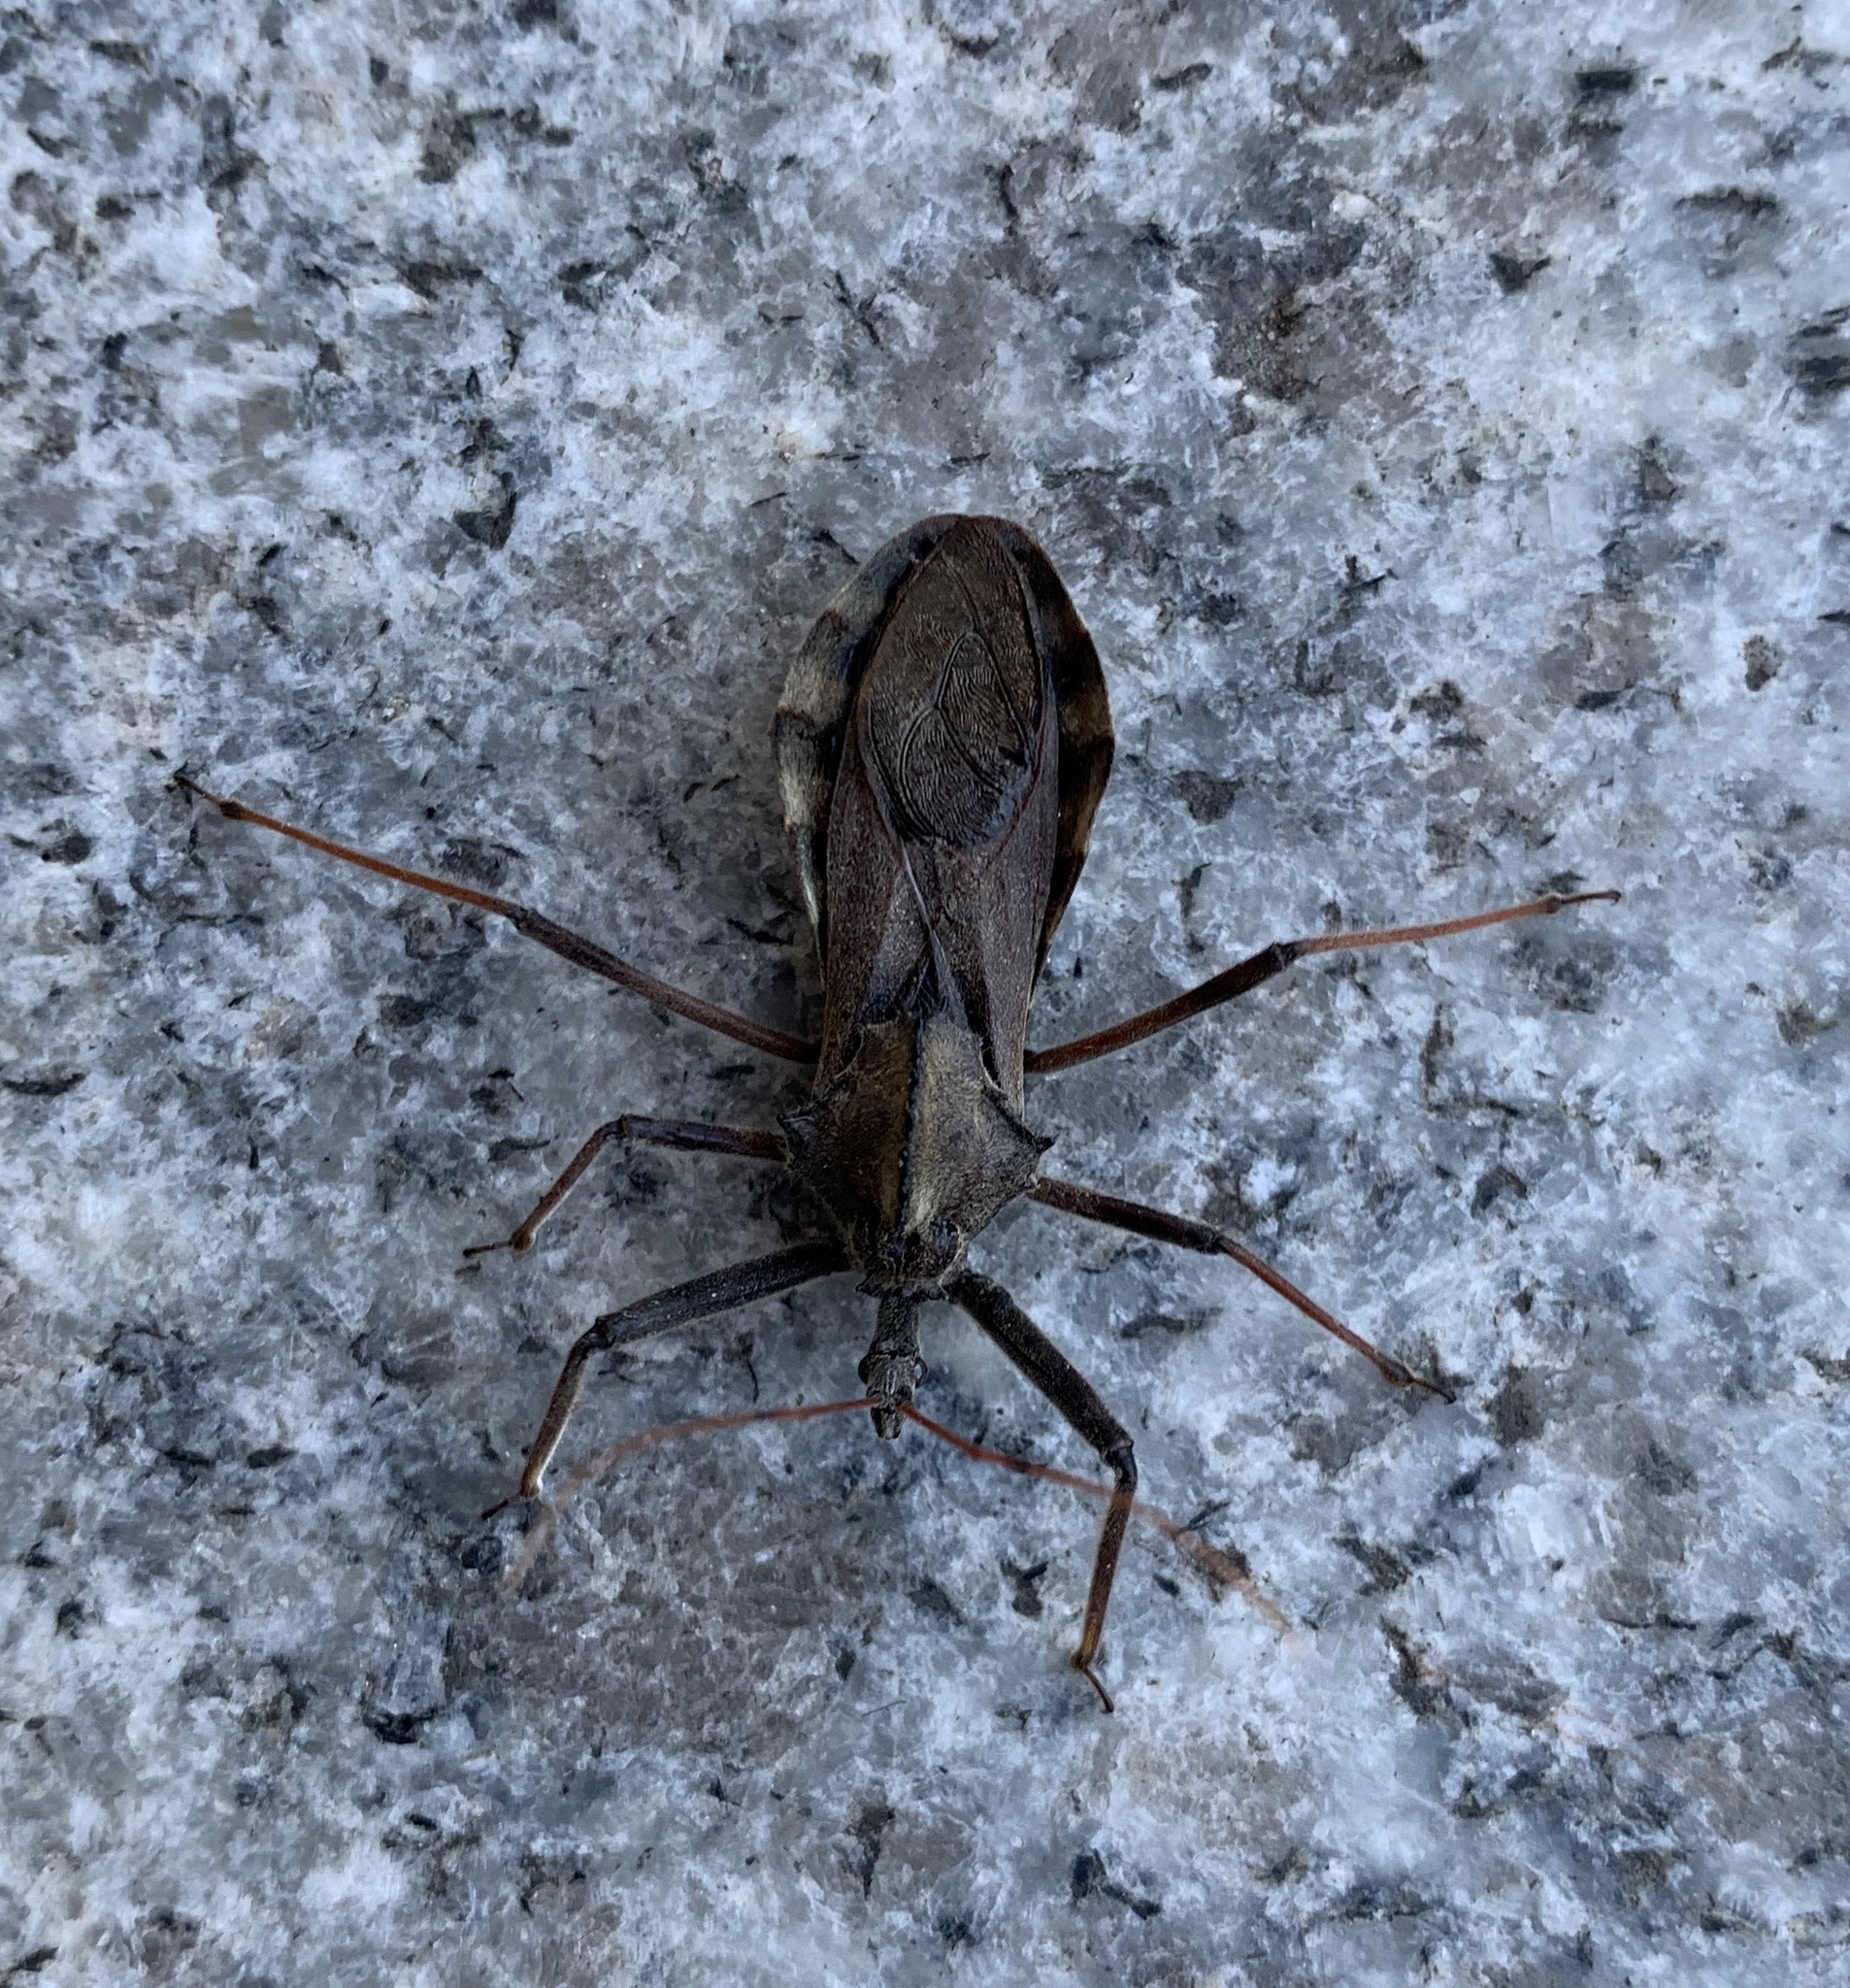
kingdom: Animalia
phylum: Arthropoda
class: Insecta
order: Hemiptera
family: Reduviidae
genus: Arilus
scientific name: Arilus cristatus
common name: North american wheel bug
